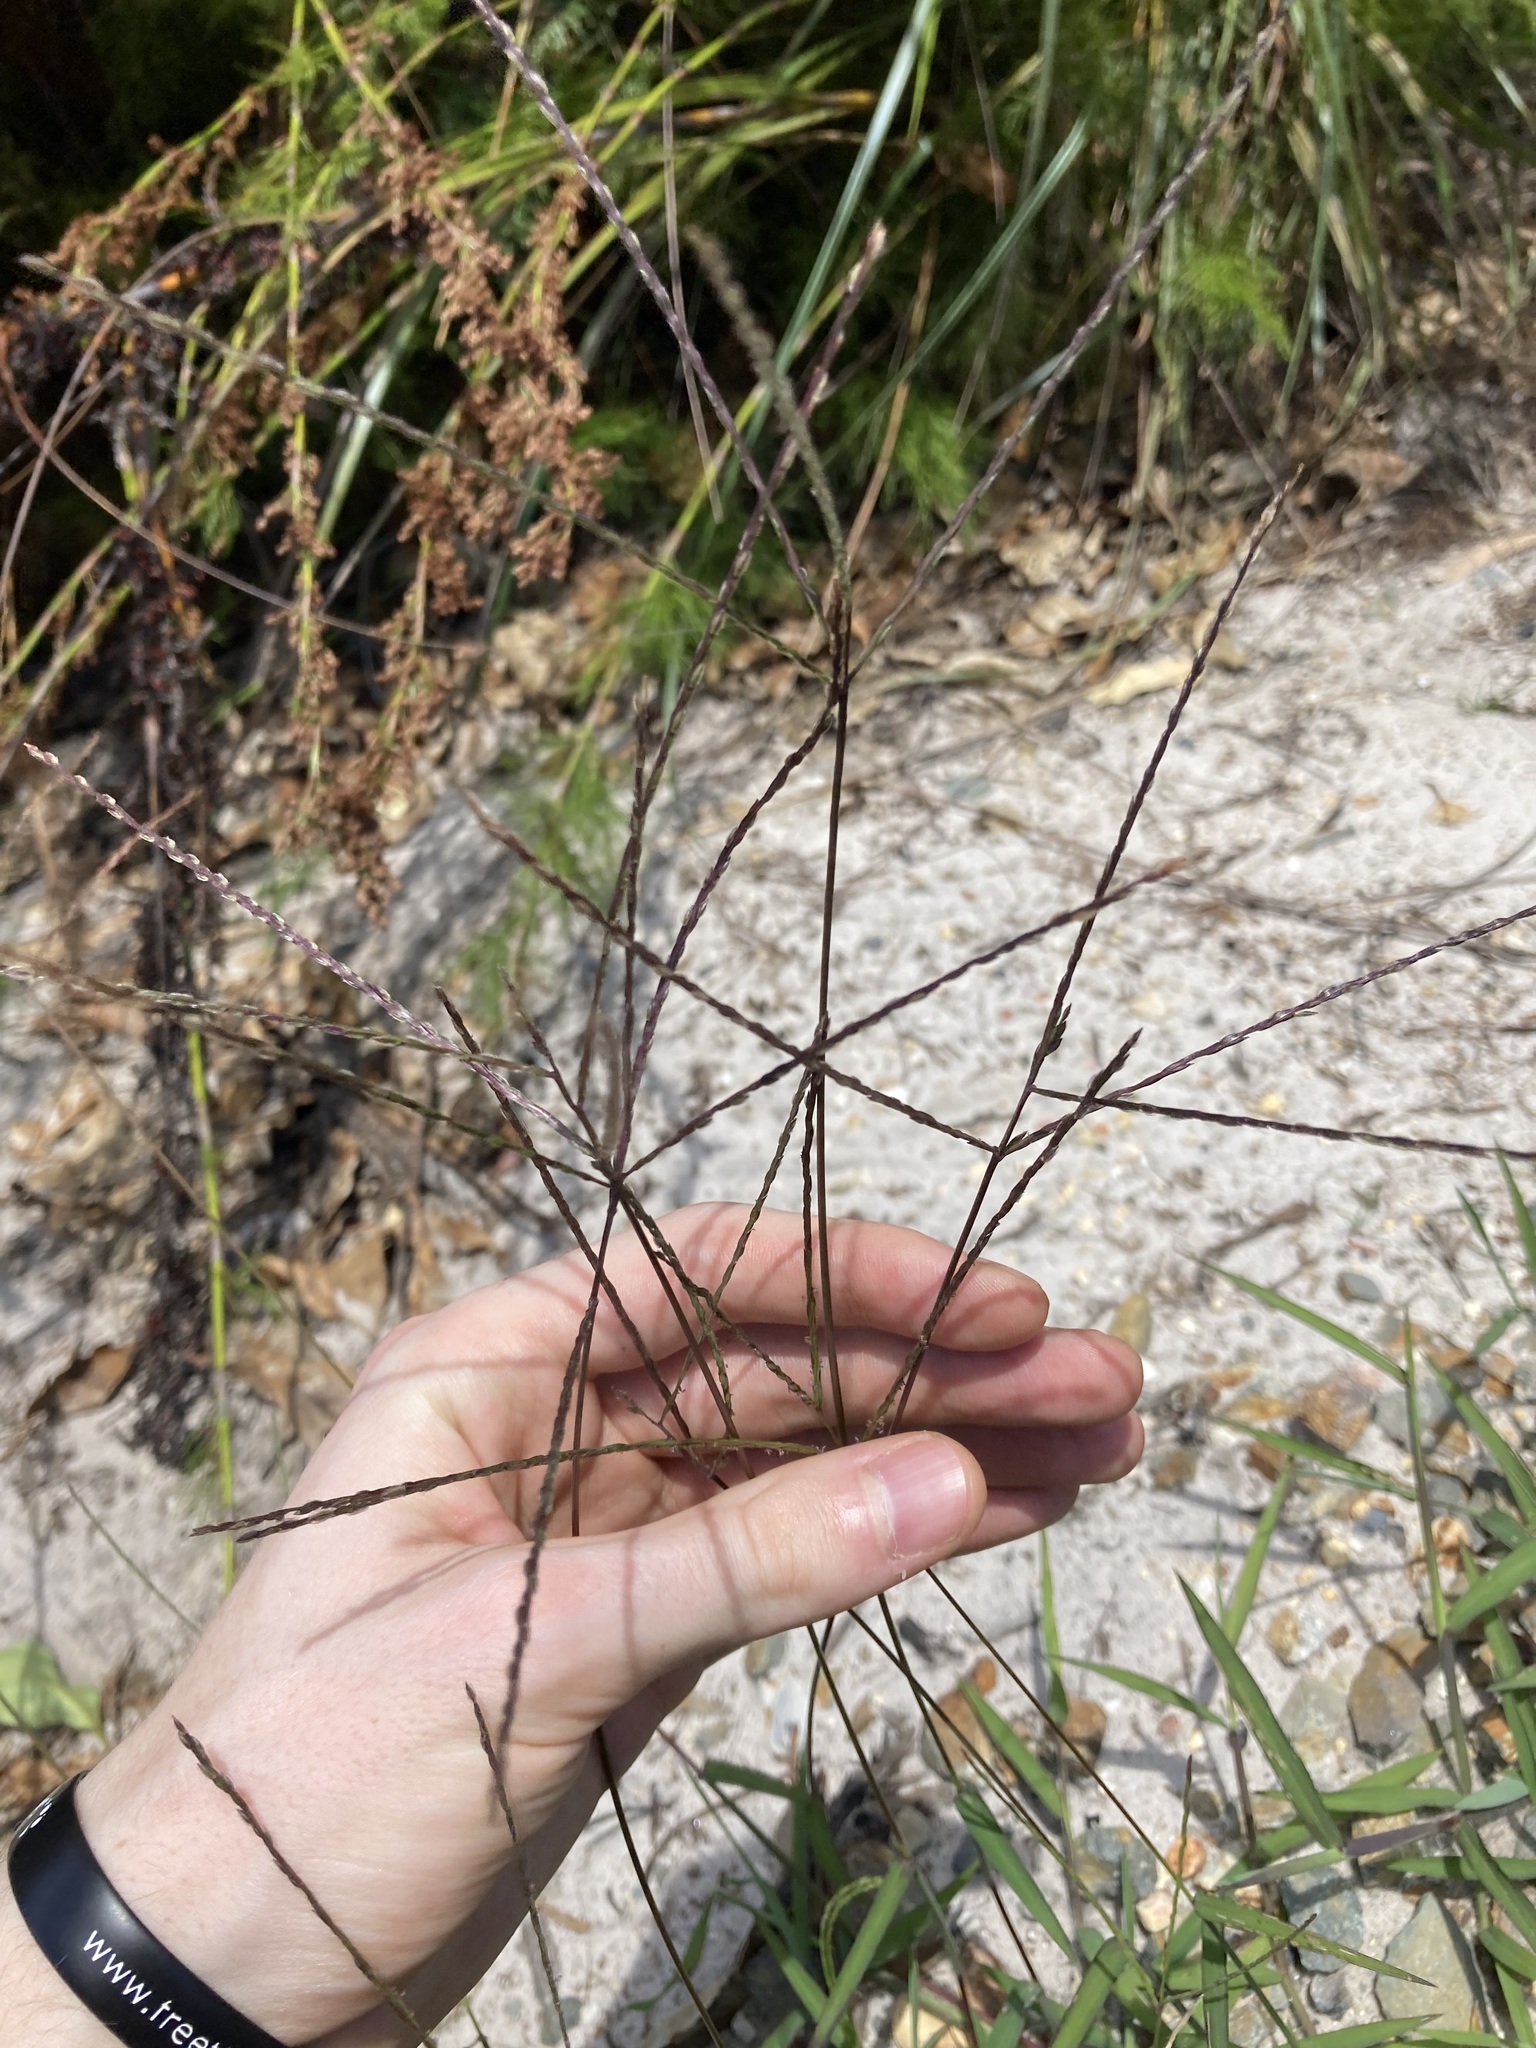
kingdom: Plantae
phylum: Tracheophyta
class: Liliopsida
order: Poales
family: Poaceae
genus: Digitaria
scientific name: Digitaria ciliaris
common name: Tropical finger-grass
